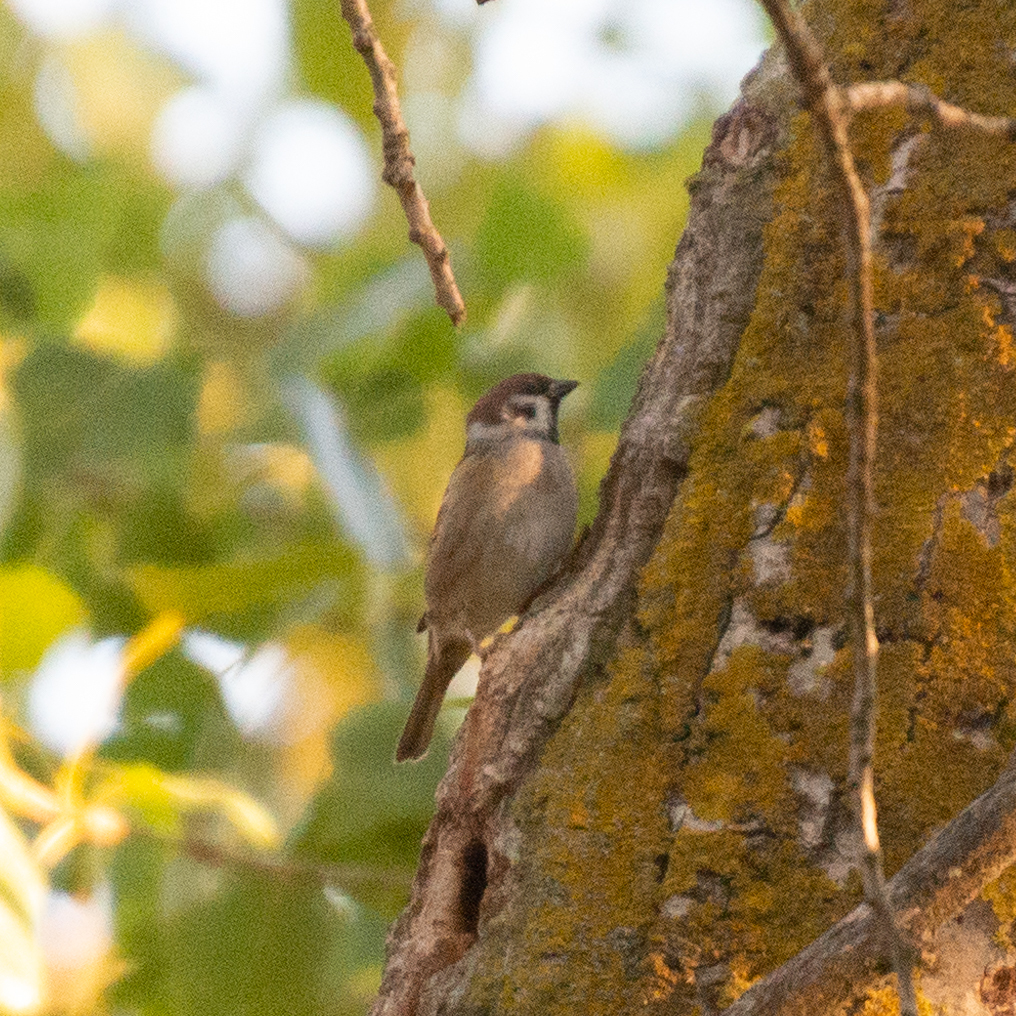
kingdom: Animalia
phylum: Chordata
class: Aves
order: Passeriformes
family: Passeridae
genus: Passer
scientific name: Passer montanus
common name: Eurasian tree sparrow
